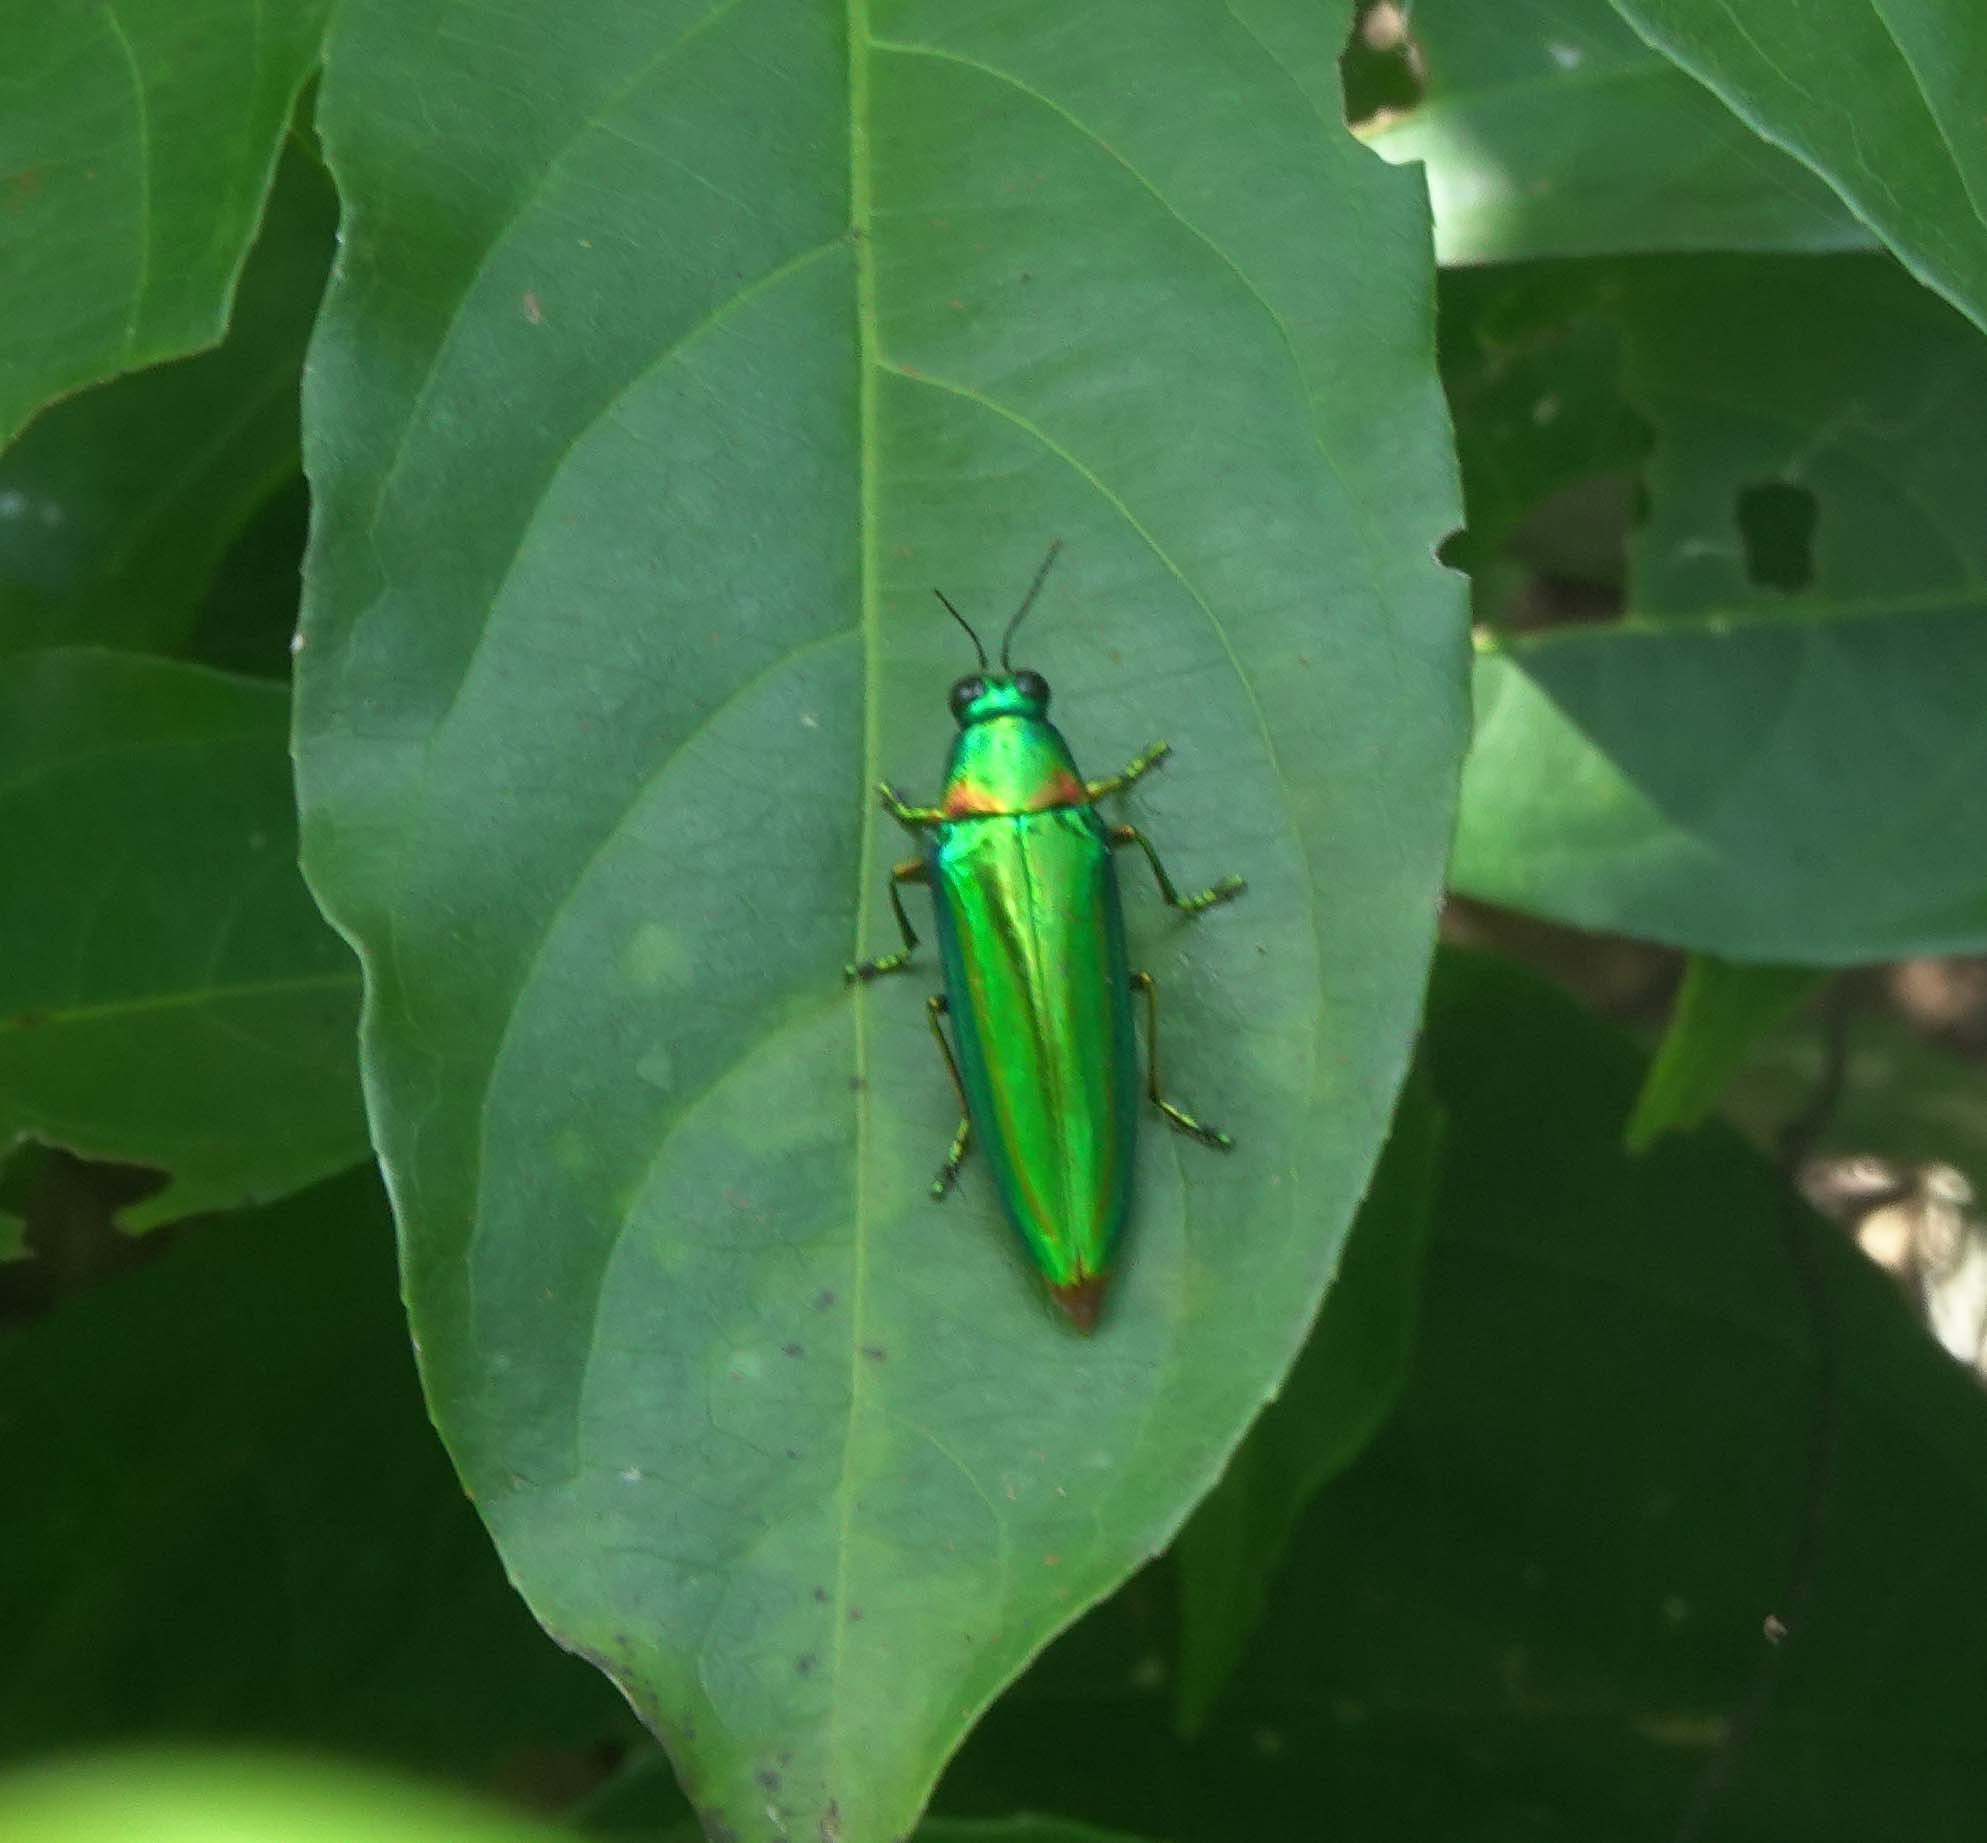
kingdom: Animalia
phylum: Arthropoda
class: Insecta
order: Coleoptera
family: Buprestidae
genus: Chrysochroa
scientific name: Chrysochroa rajah
